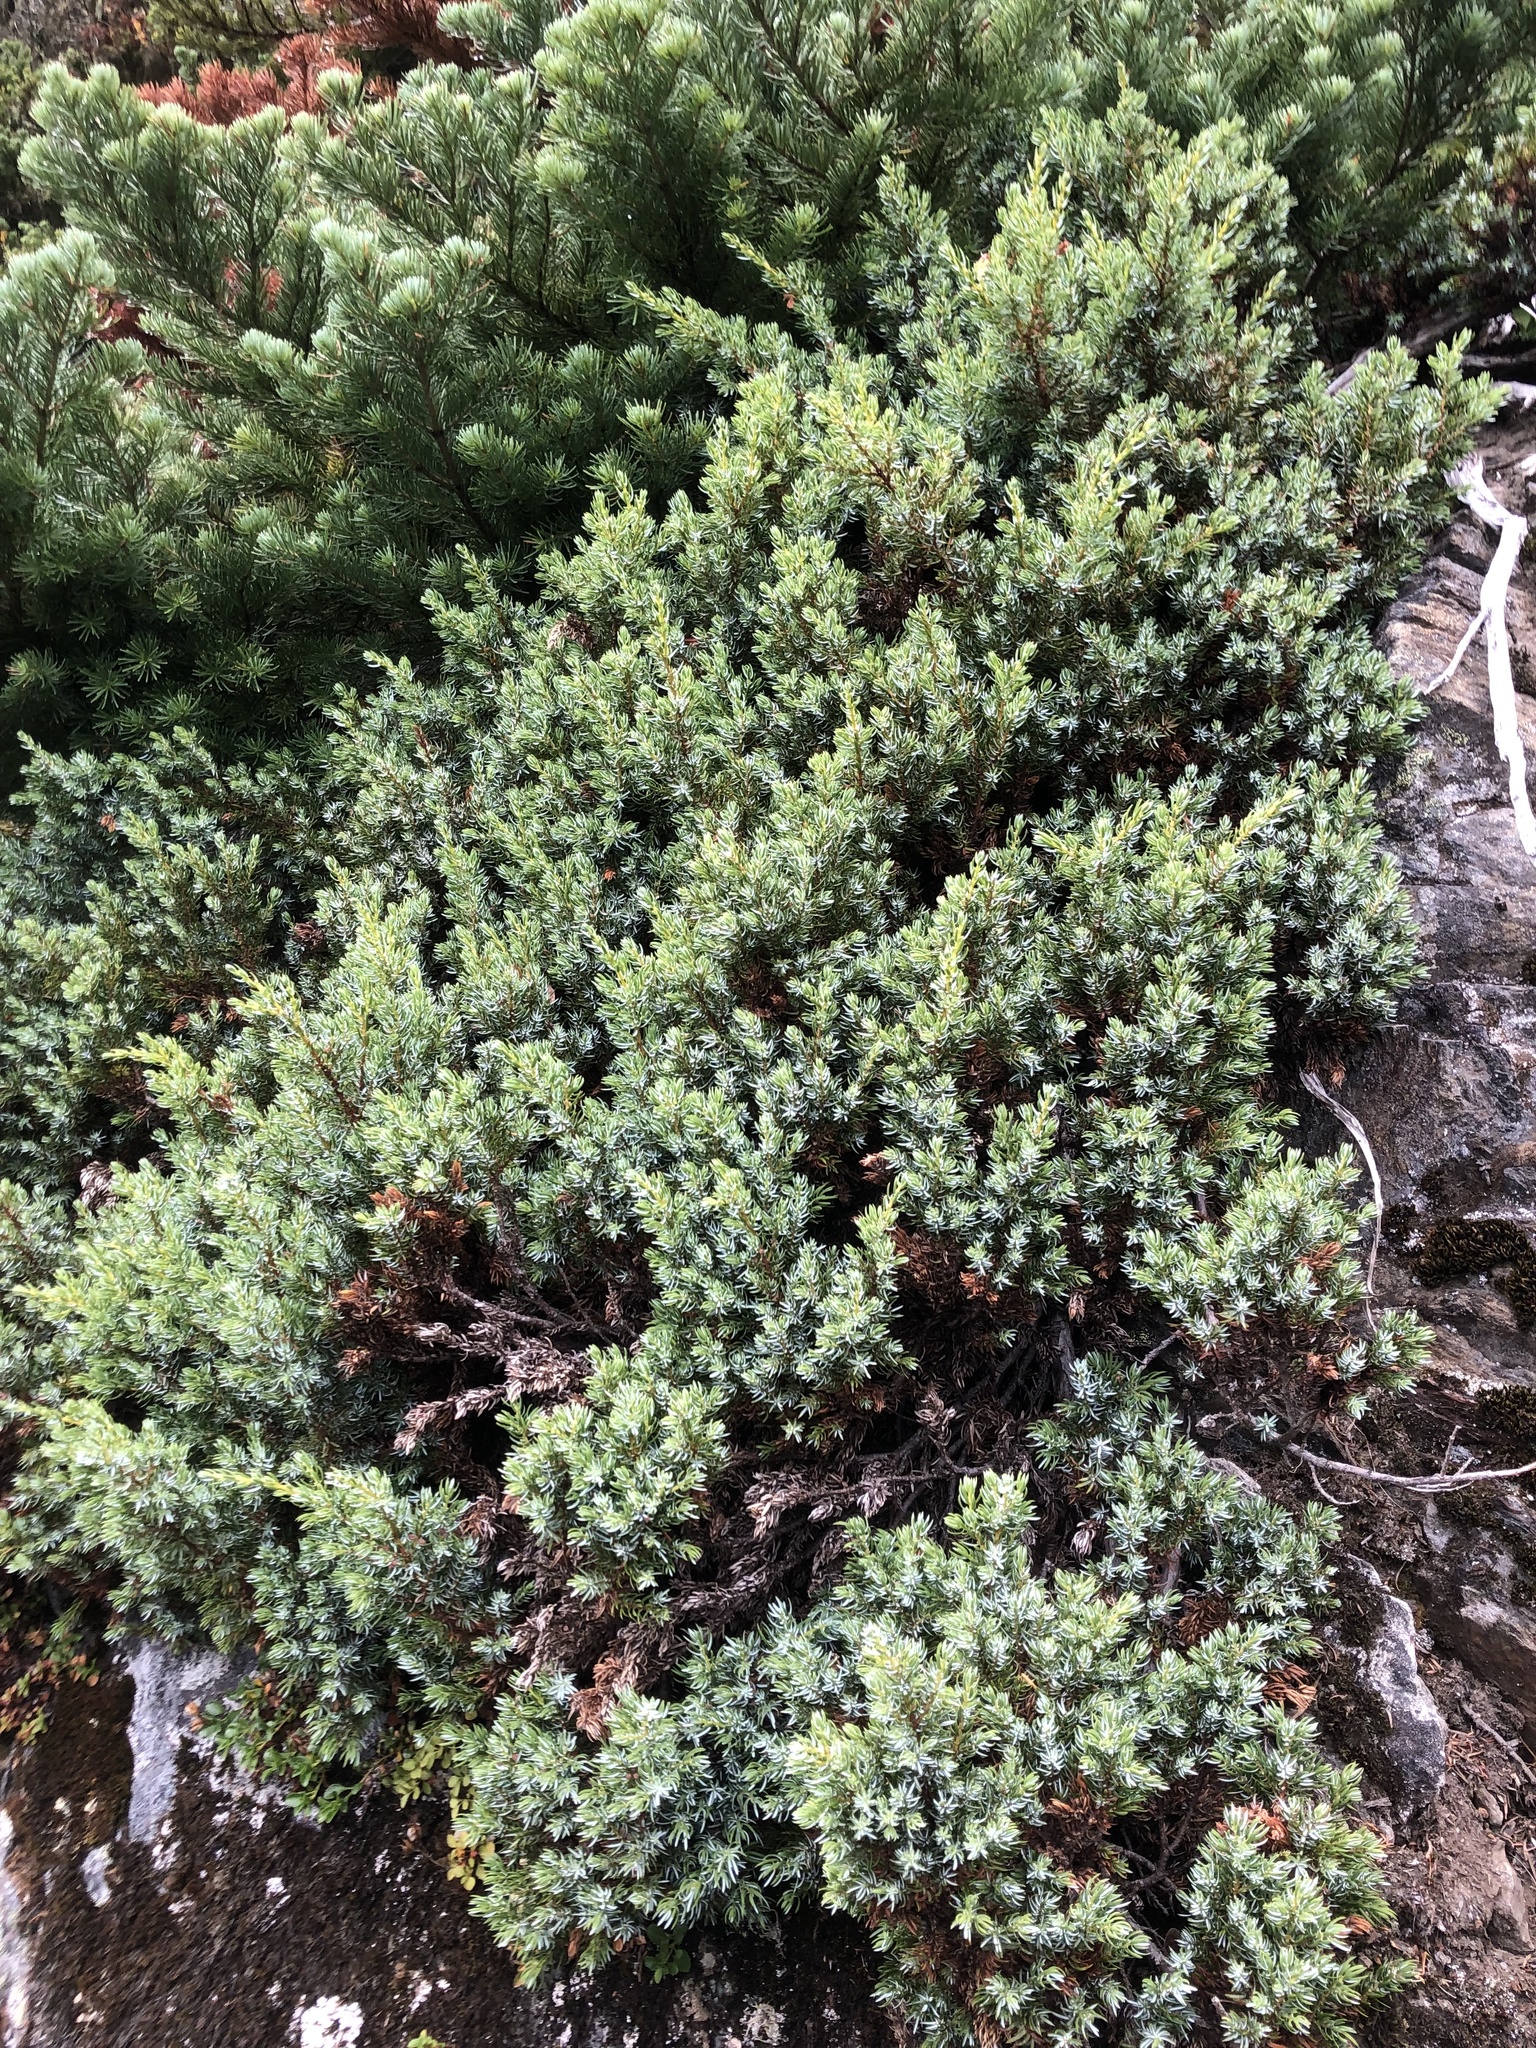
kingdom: Plantae
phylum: Tracheophyta
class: Pinopsida
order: Pinales
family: Cupressaceae
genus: Juniperus
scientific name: Juniperus communis
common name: Common juniper
